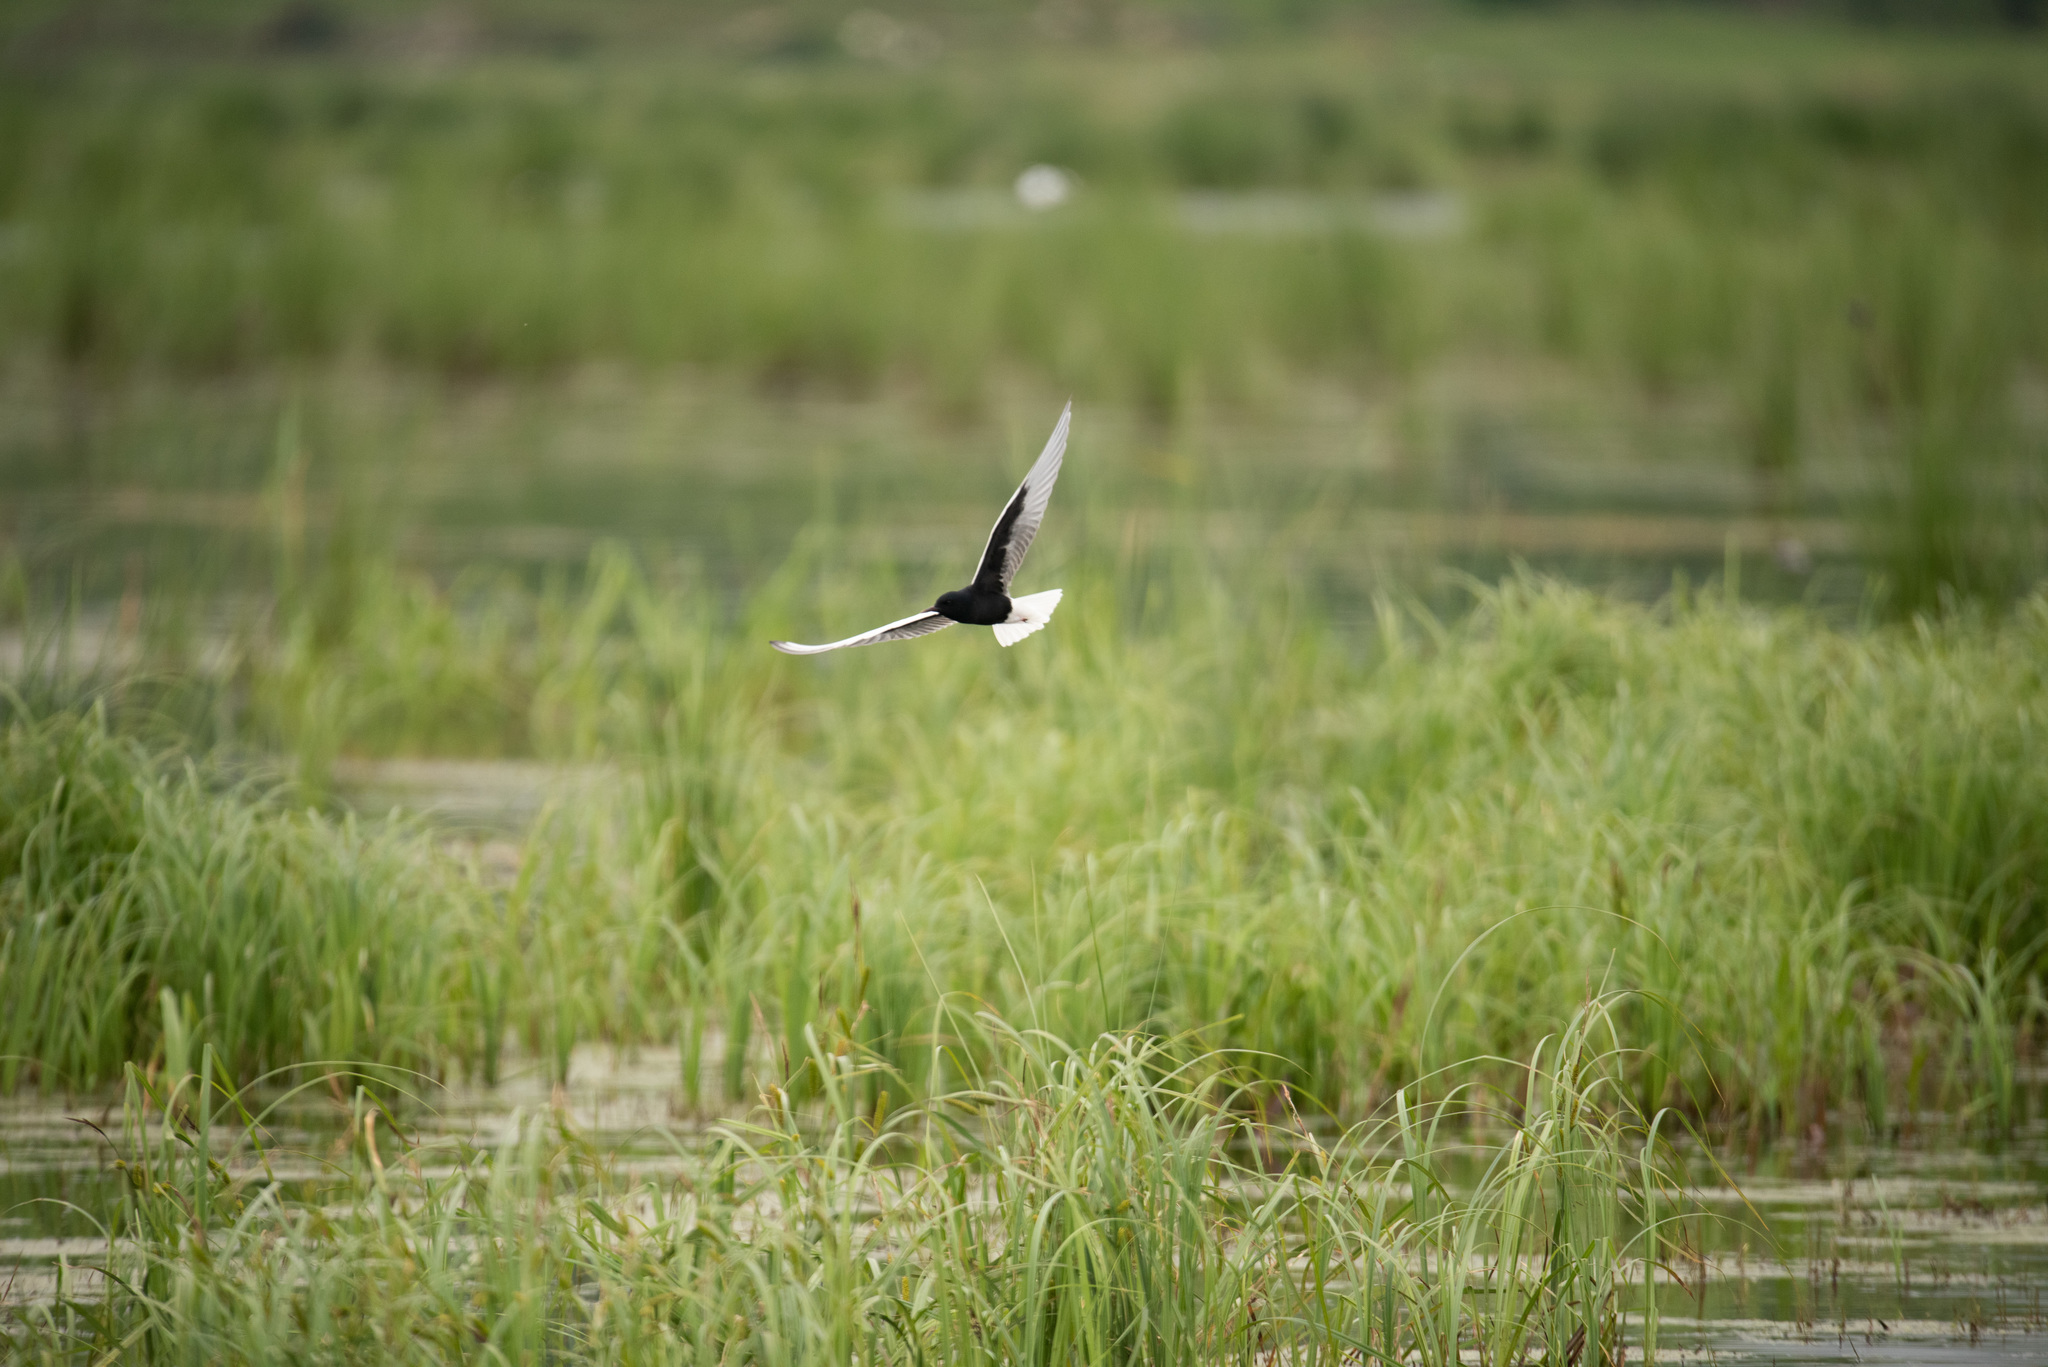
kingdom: Animalia
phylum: Chordata
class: Aves
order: Charadriiformes
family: Laridae
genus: Chlidonias
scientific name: Chlidonias leucopterus
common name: White-winged tern
